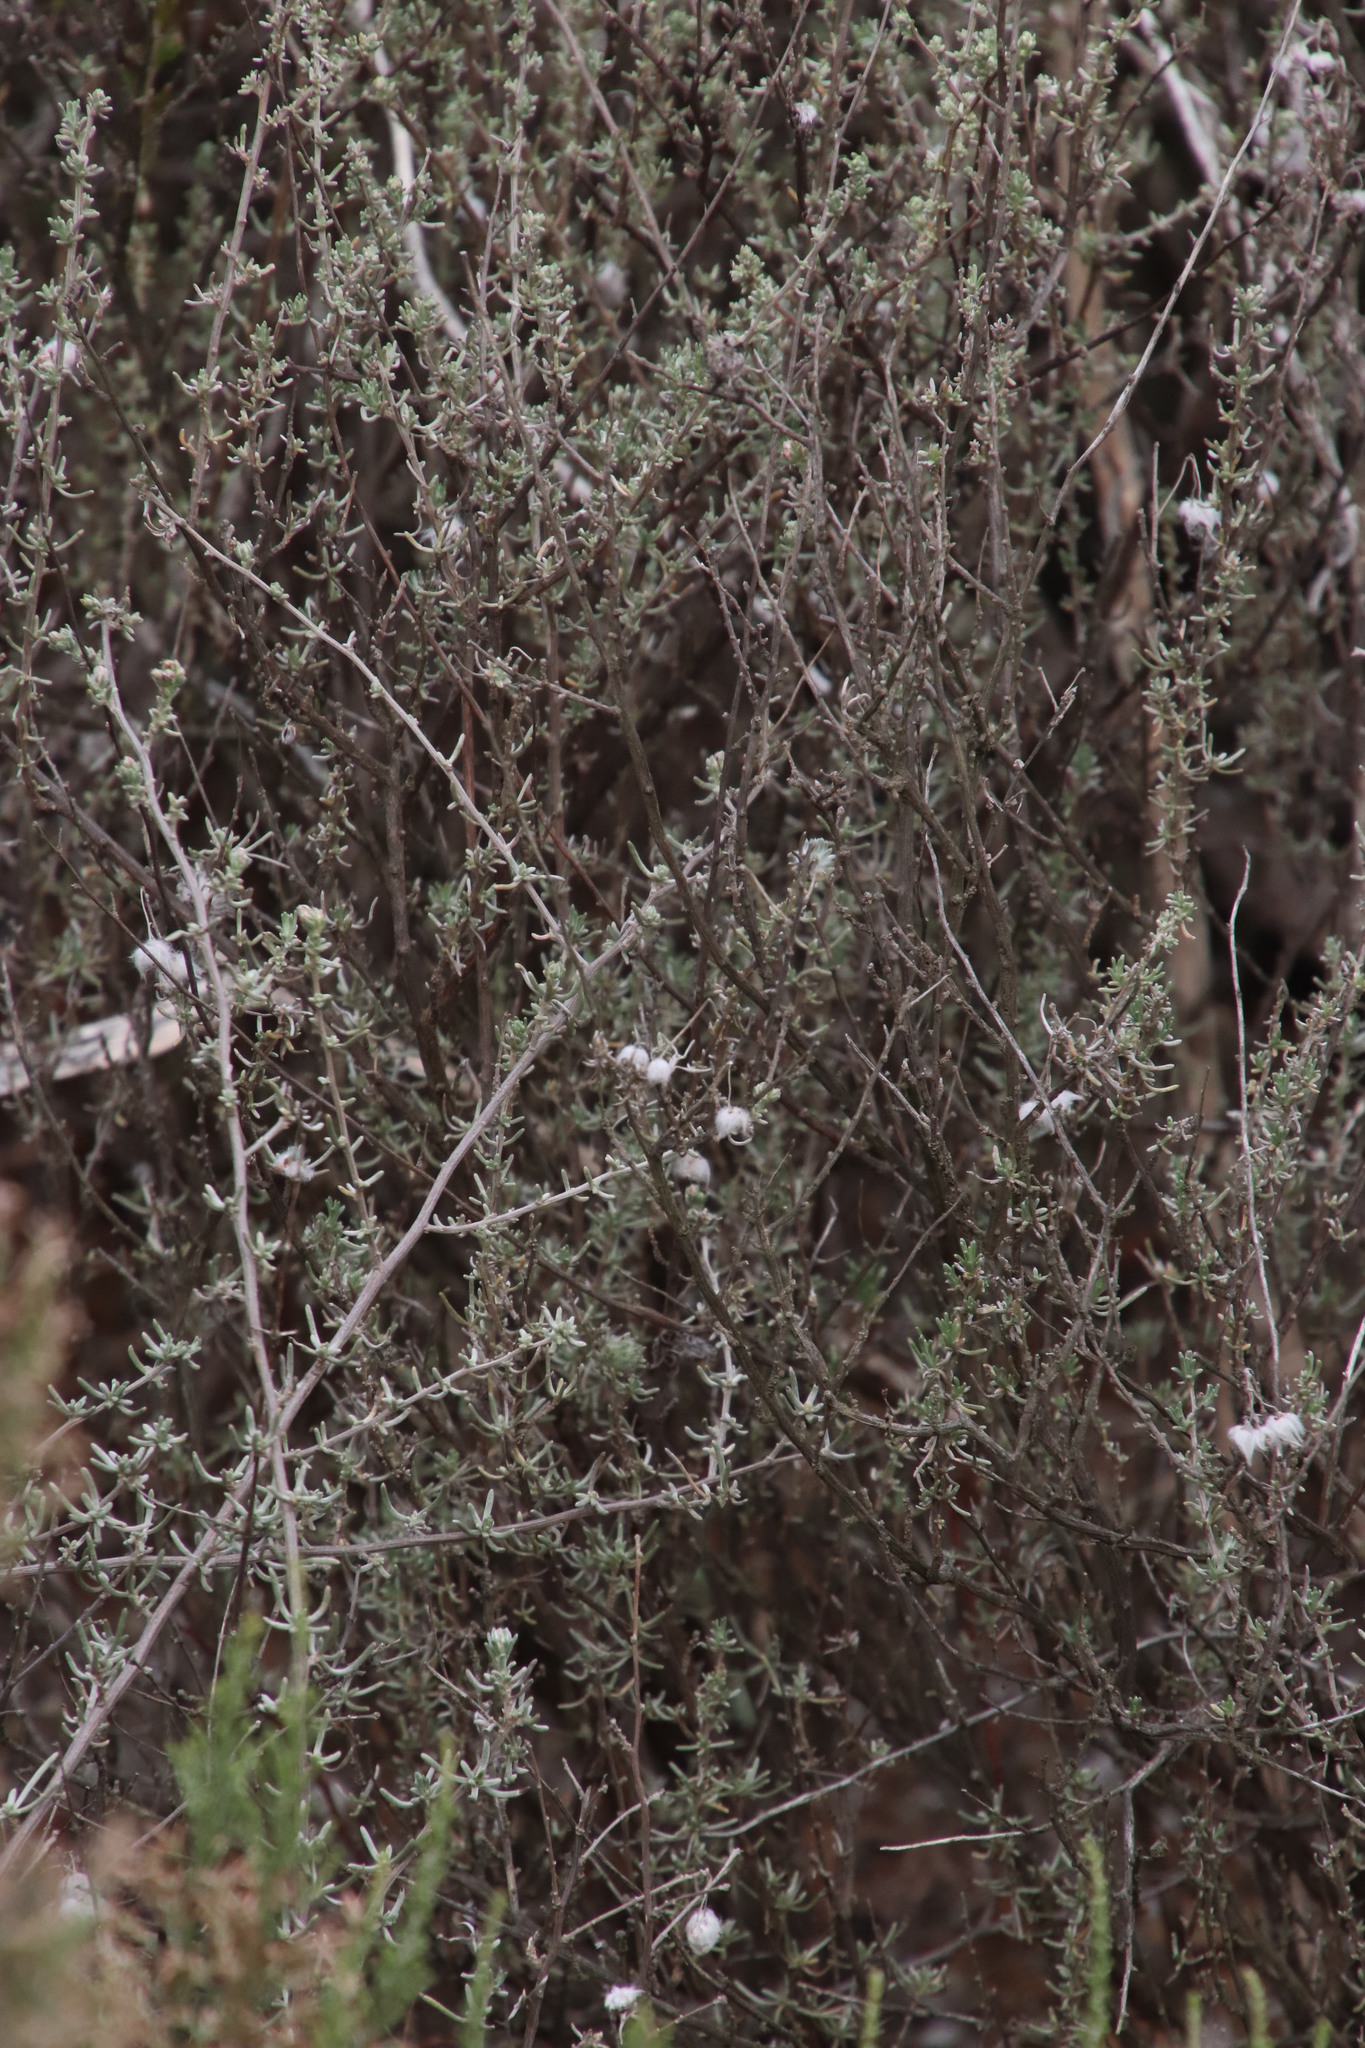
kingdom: Plantae
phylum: Tracheophyta
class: Magnoliopsida
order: Asterales
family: Asteraceae
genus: Eriocephalus
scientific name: Eriocephalus africanus
